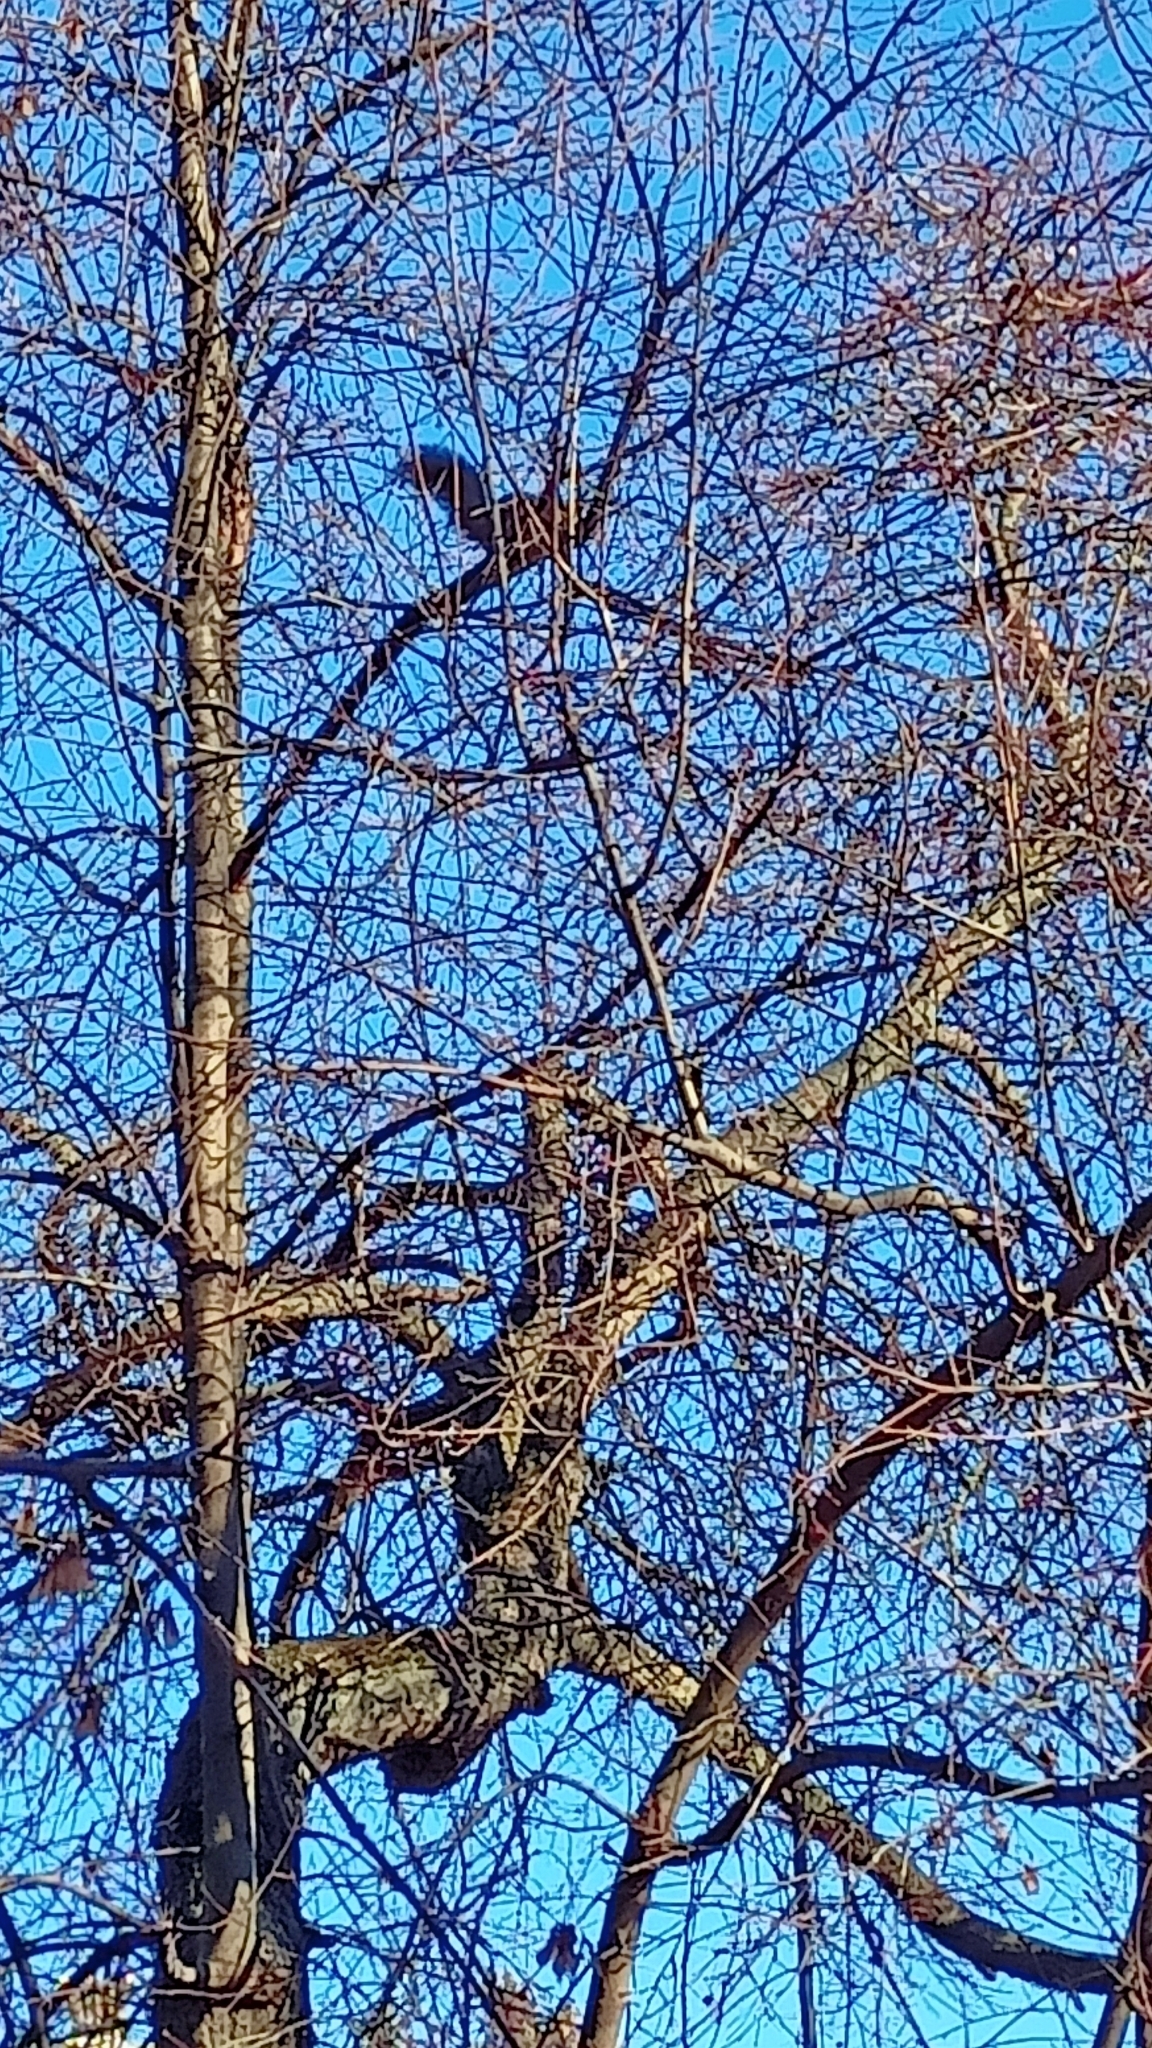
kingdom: Animalia
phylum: Chordata
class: Mammalia
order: Rodentia
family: Sciuridae
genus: Sciurus
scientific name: Sciurus vulgaris
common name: Eurasian red squirrel
